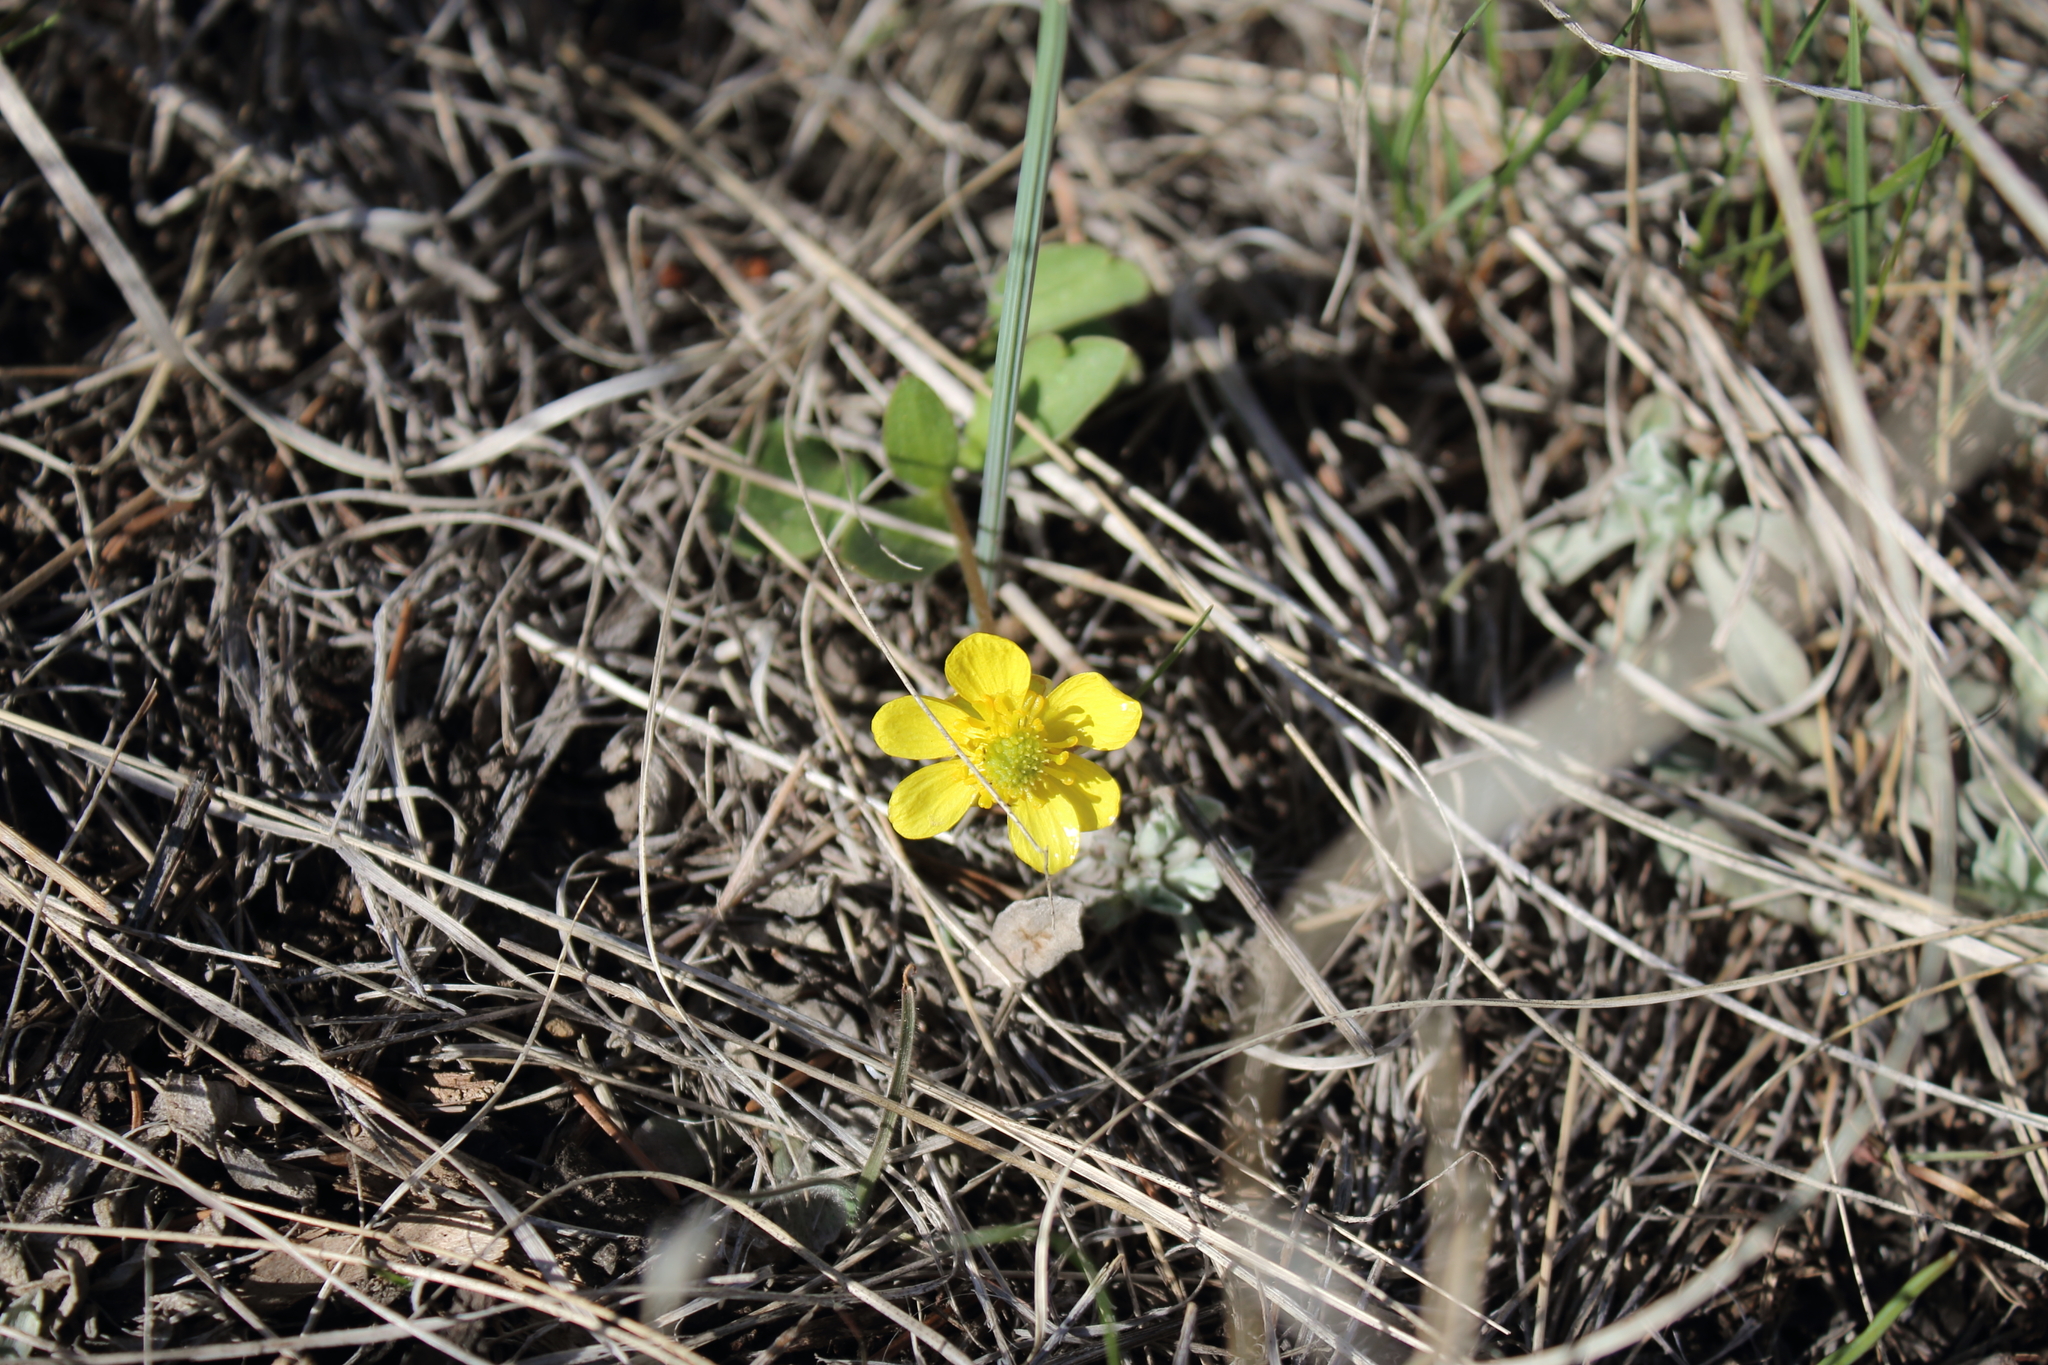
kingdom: Plantae
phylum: Tracheophyta
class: Magnoliopsida
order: Ranunculales
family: Ranunculaceae
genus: Ranunculus
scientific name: Ranunculus glaberrimus
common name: Sagebrush buttercup
